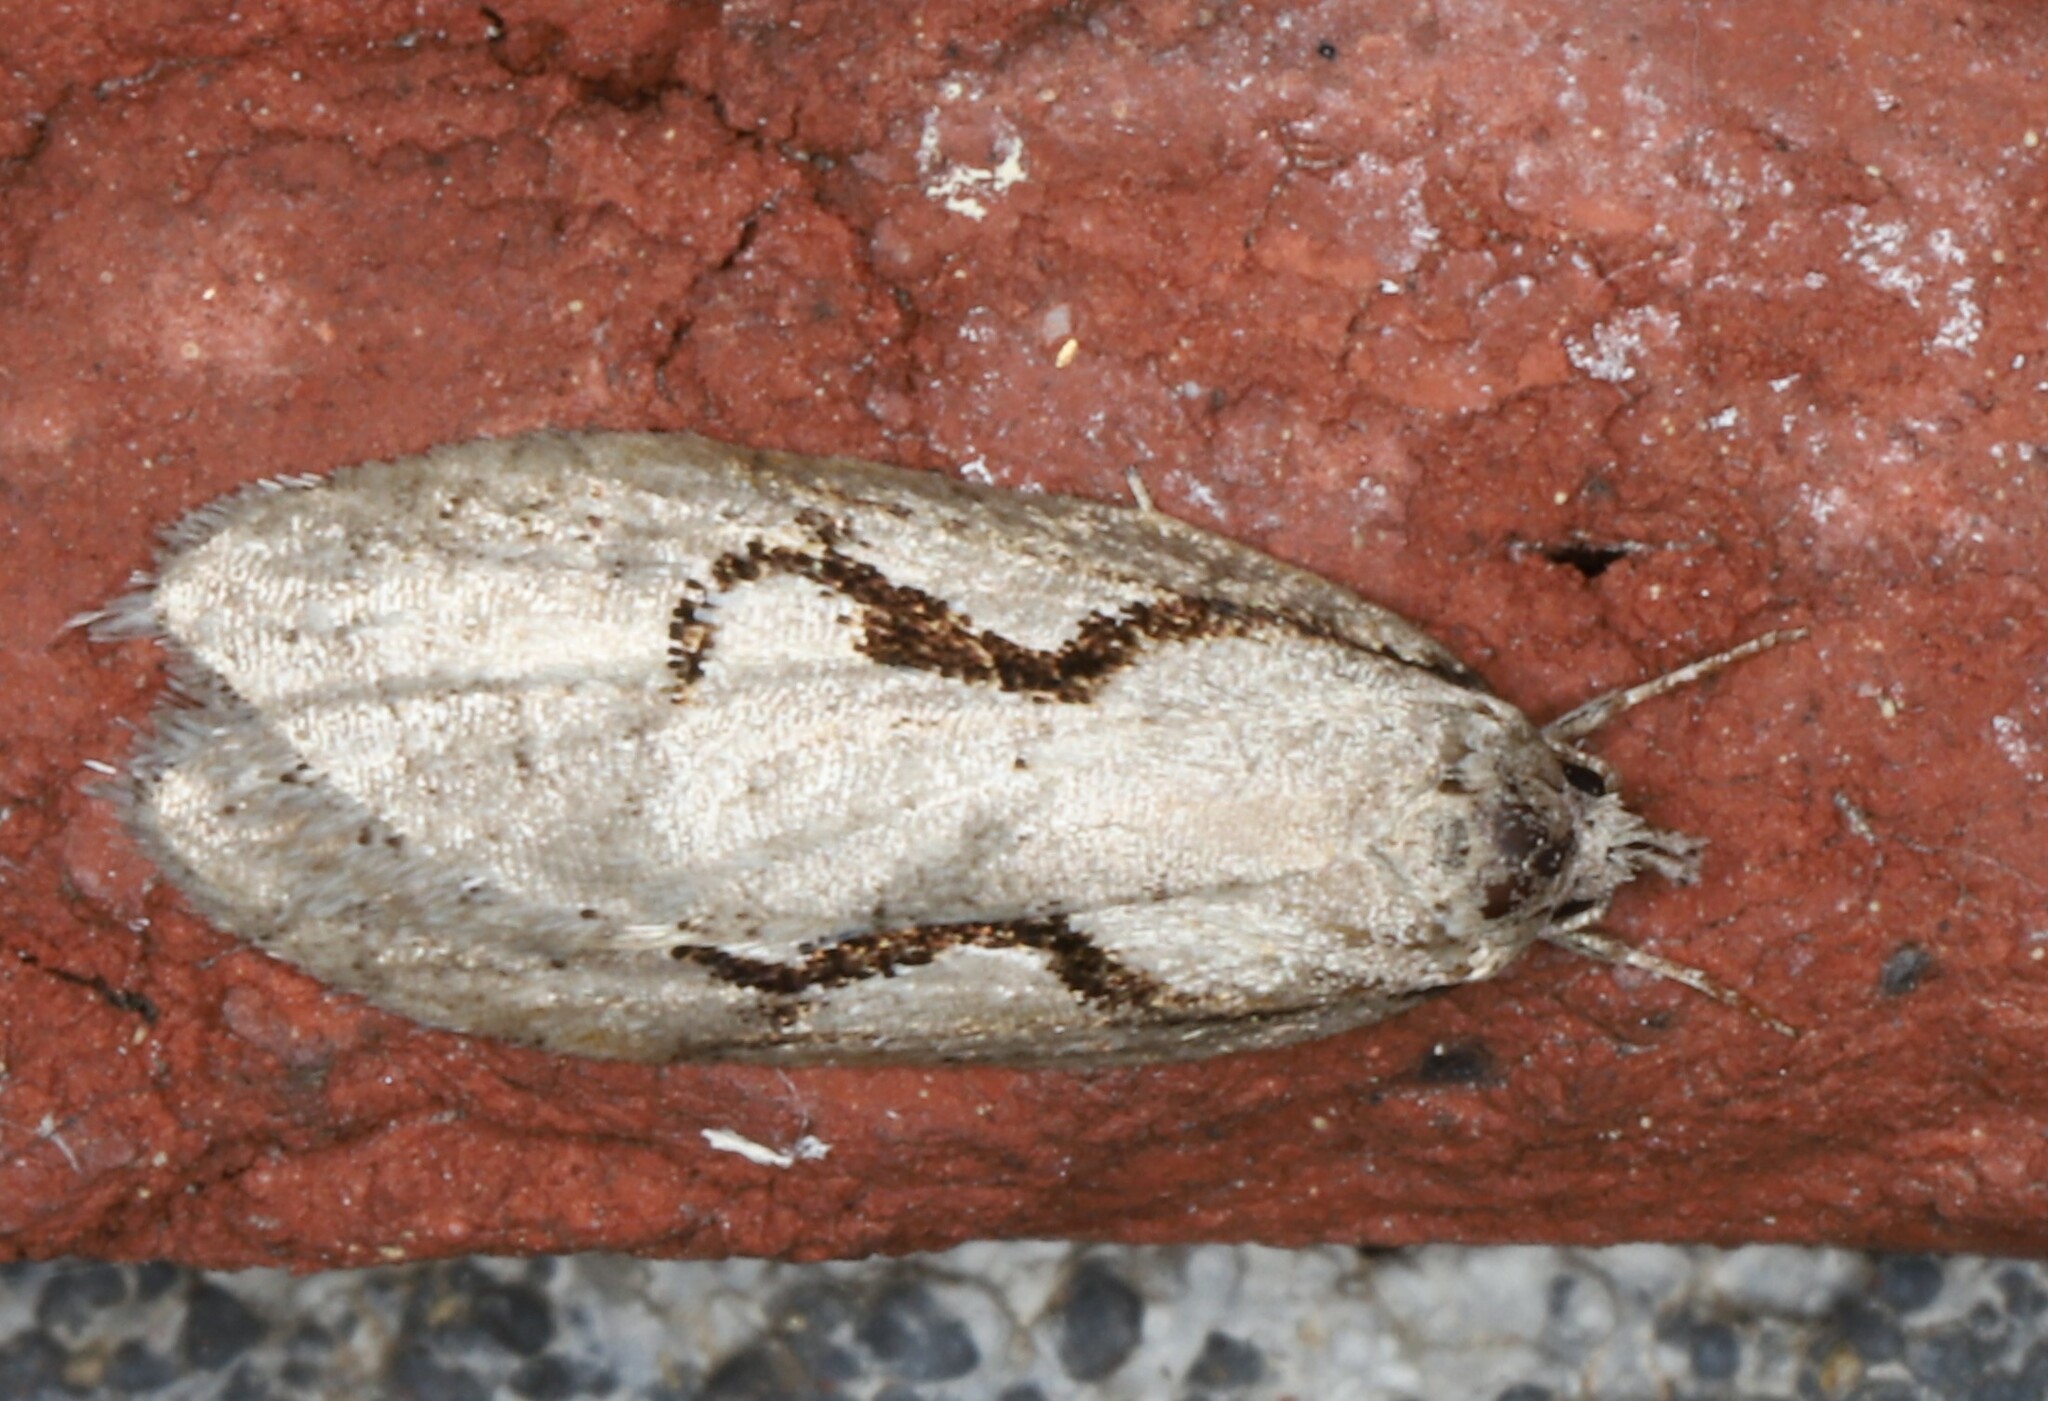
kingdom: Animalia
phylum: Arthropoda
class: Insecta
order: Lepidoptera
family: Depressariidae
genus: Semioscopis
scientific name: Semioscopis packardella
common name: Packard's concealer moth
